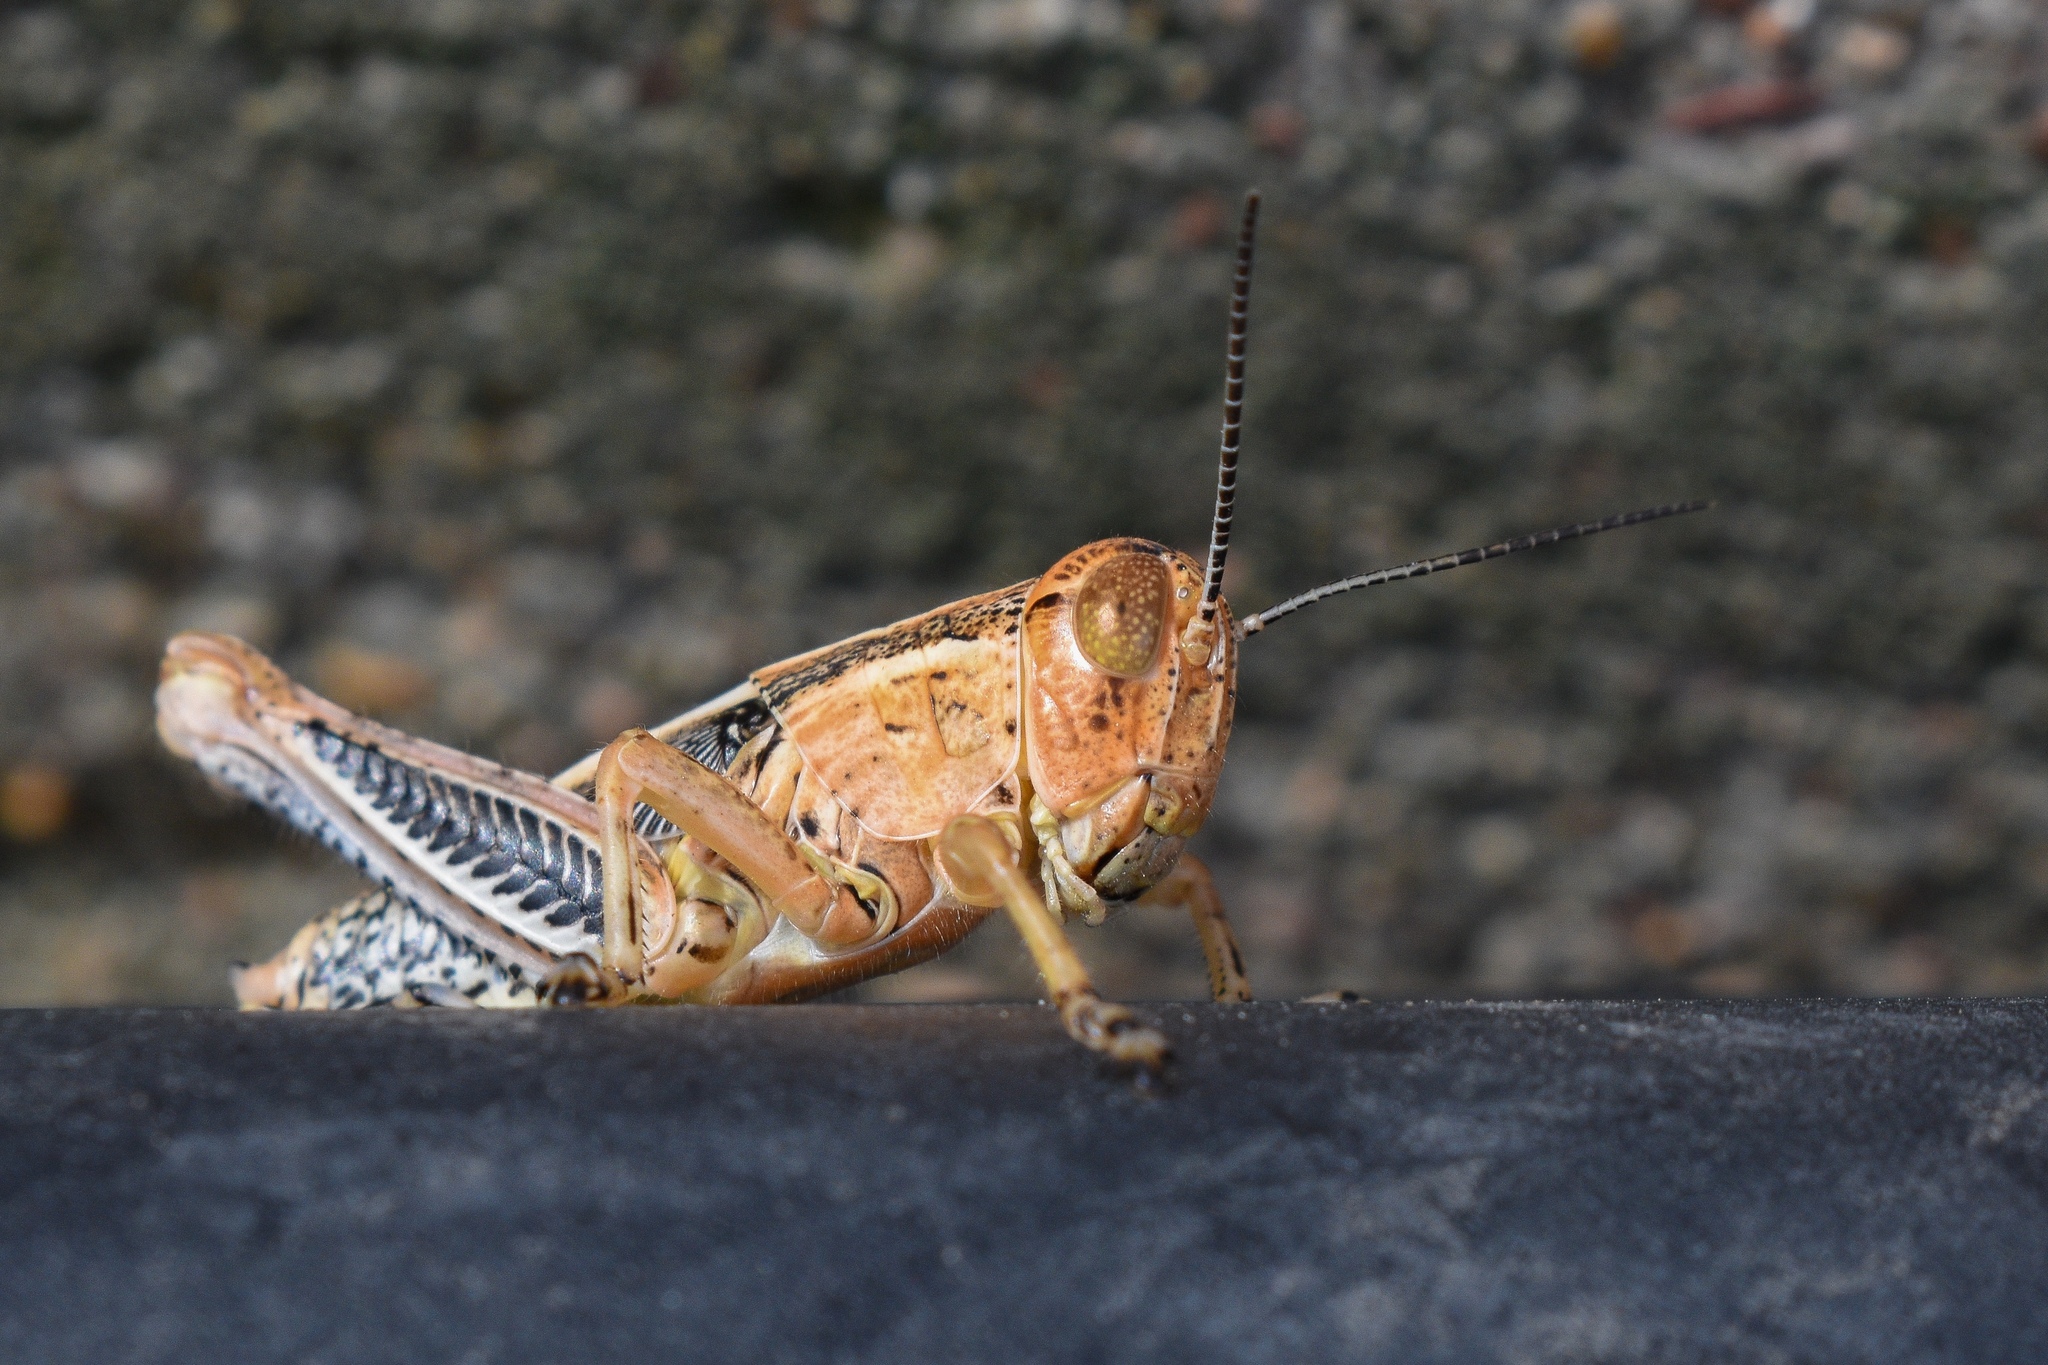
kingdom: Animalia
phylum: Arthropoda
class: Insecta
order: Orthoptera
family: Acrididae
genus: Melanoplus
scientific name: Melanoplus differentialis
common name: Differential grasshopper
